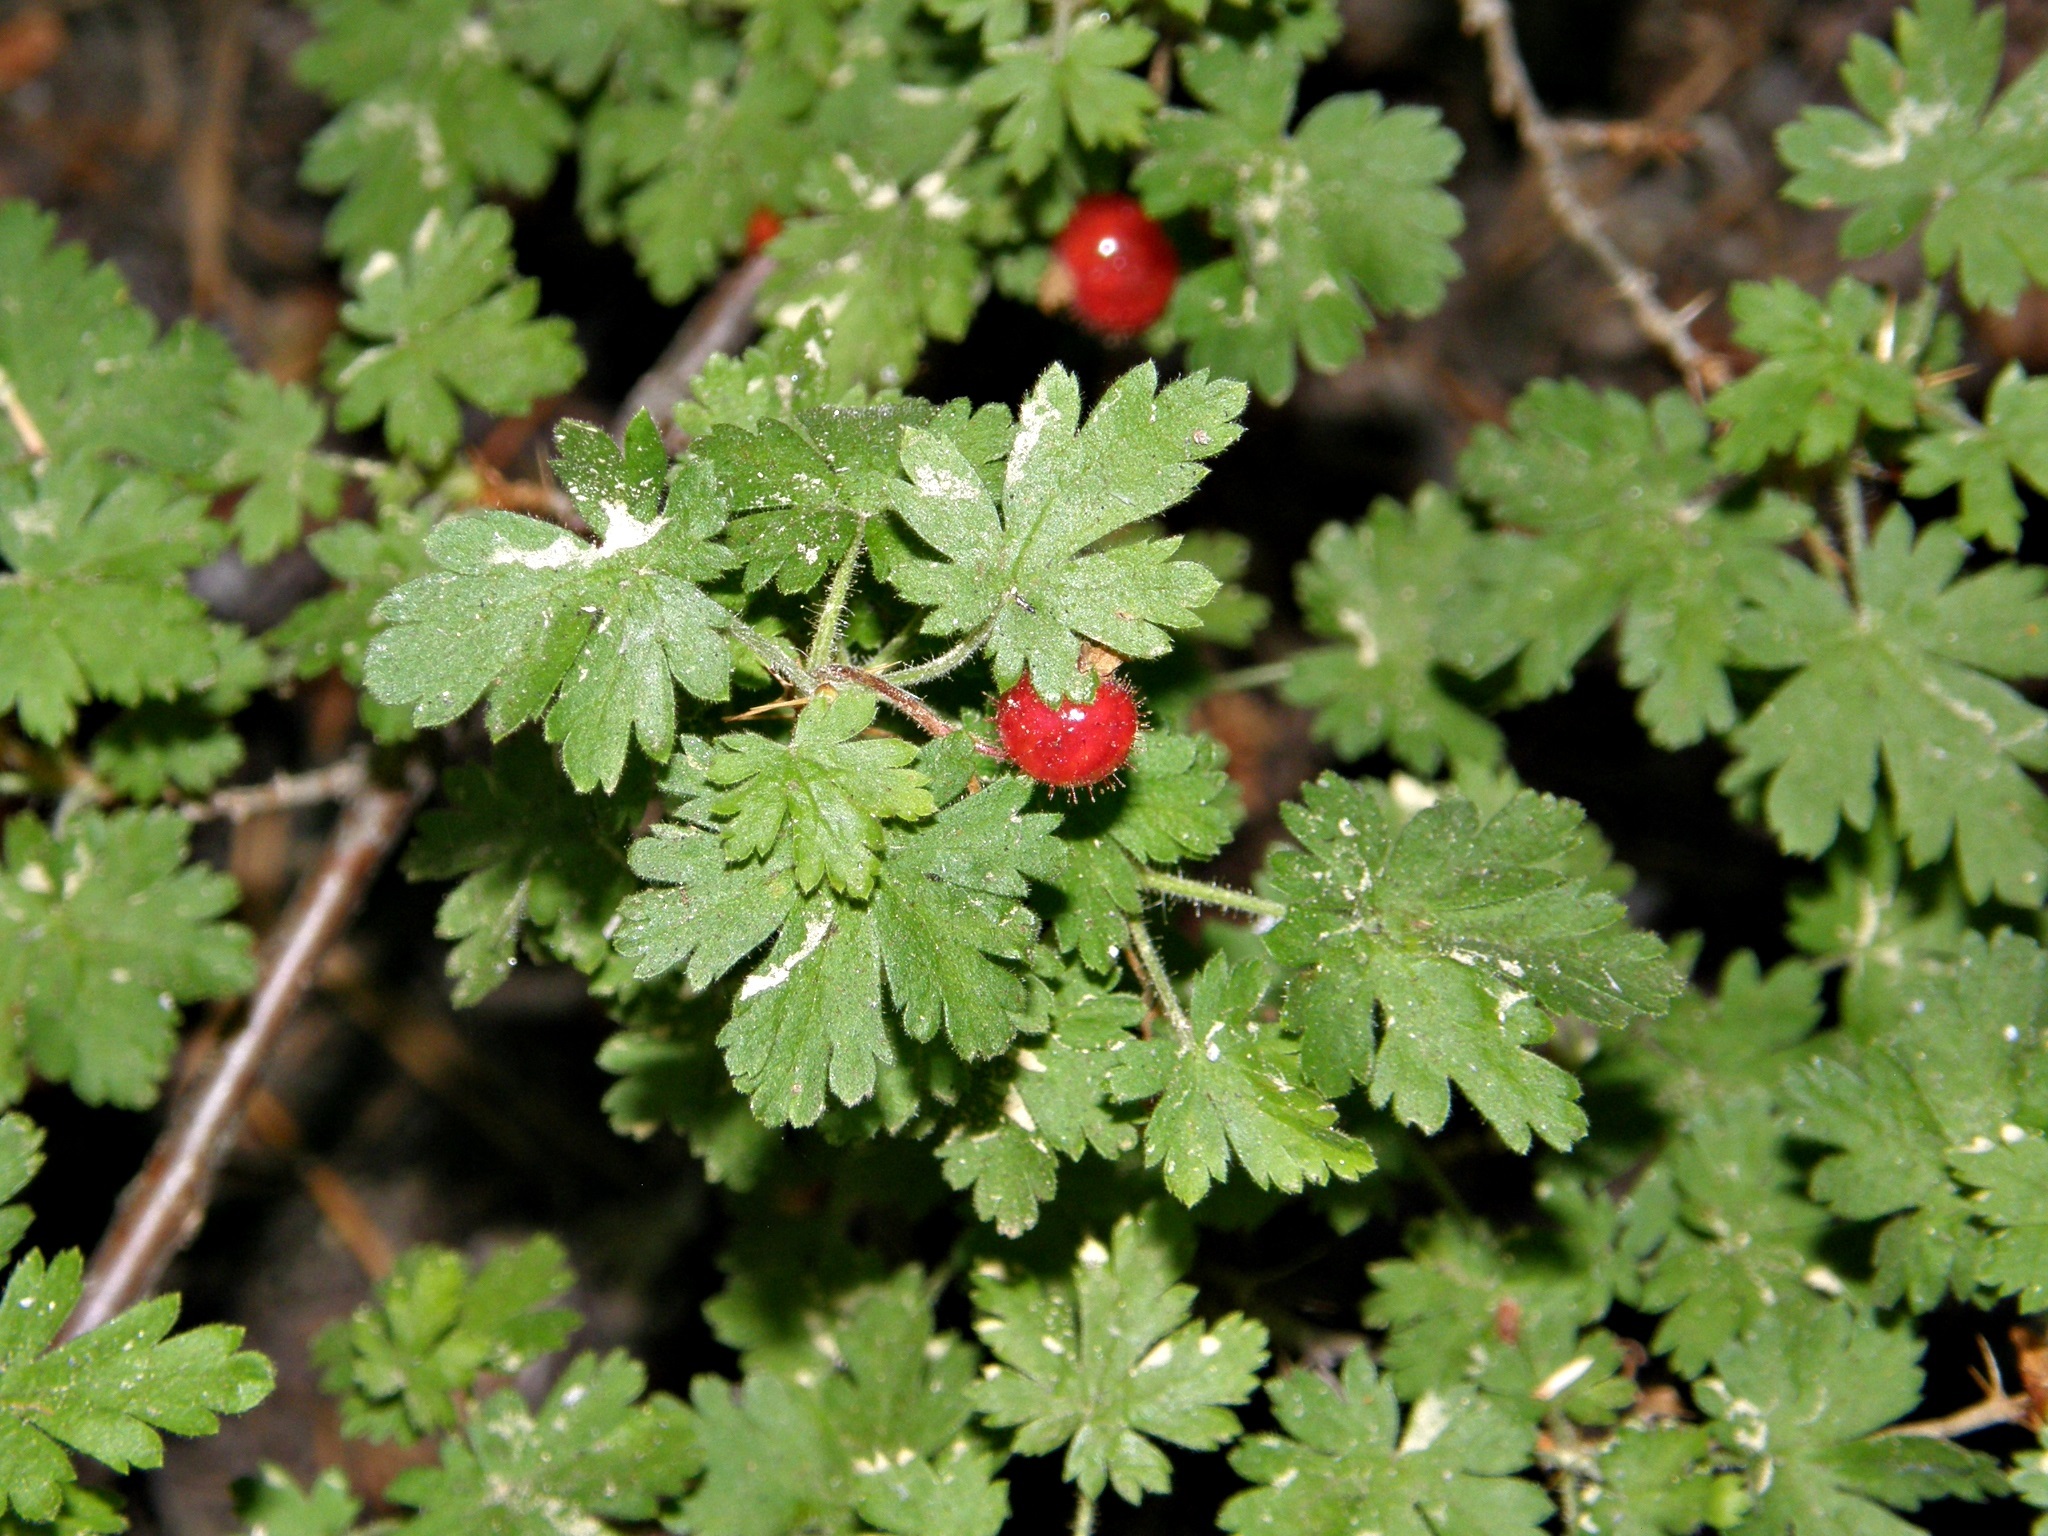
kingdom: Plantae
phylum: Tracheophyta
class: Magnoliopsida
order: Saxifragales
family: Grossulariaceae
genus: Ribes
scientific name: Ribes montigenum
